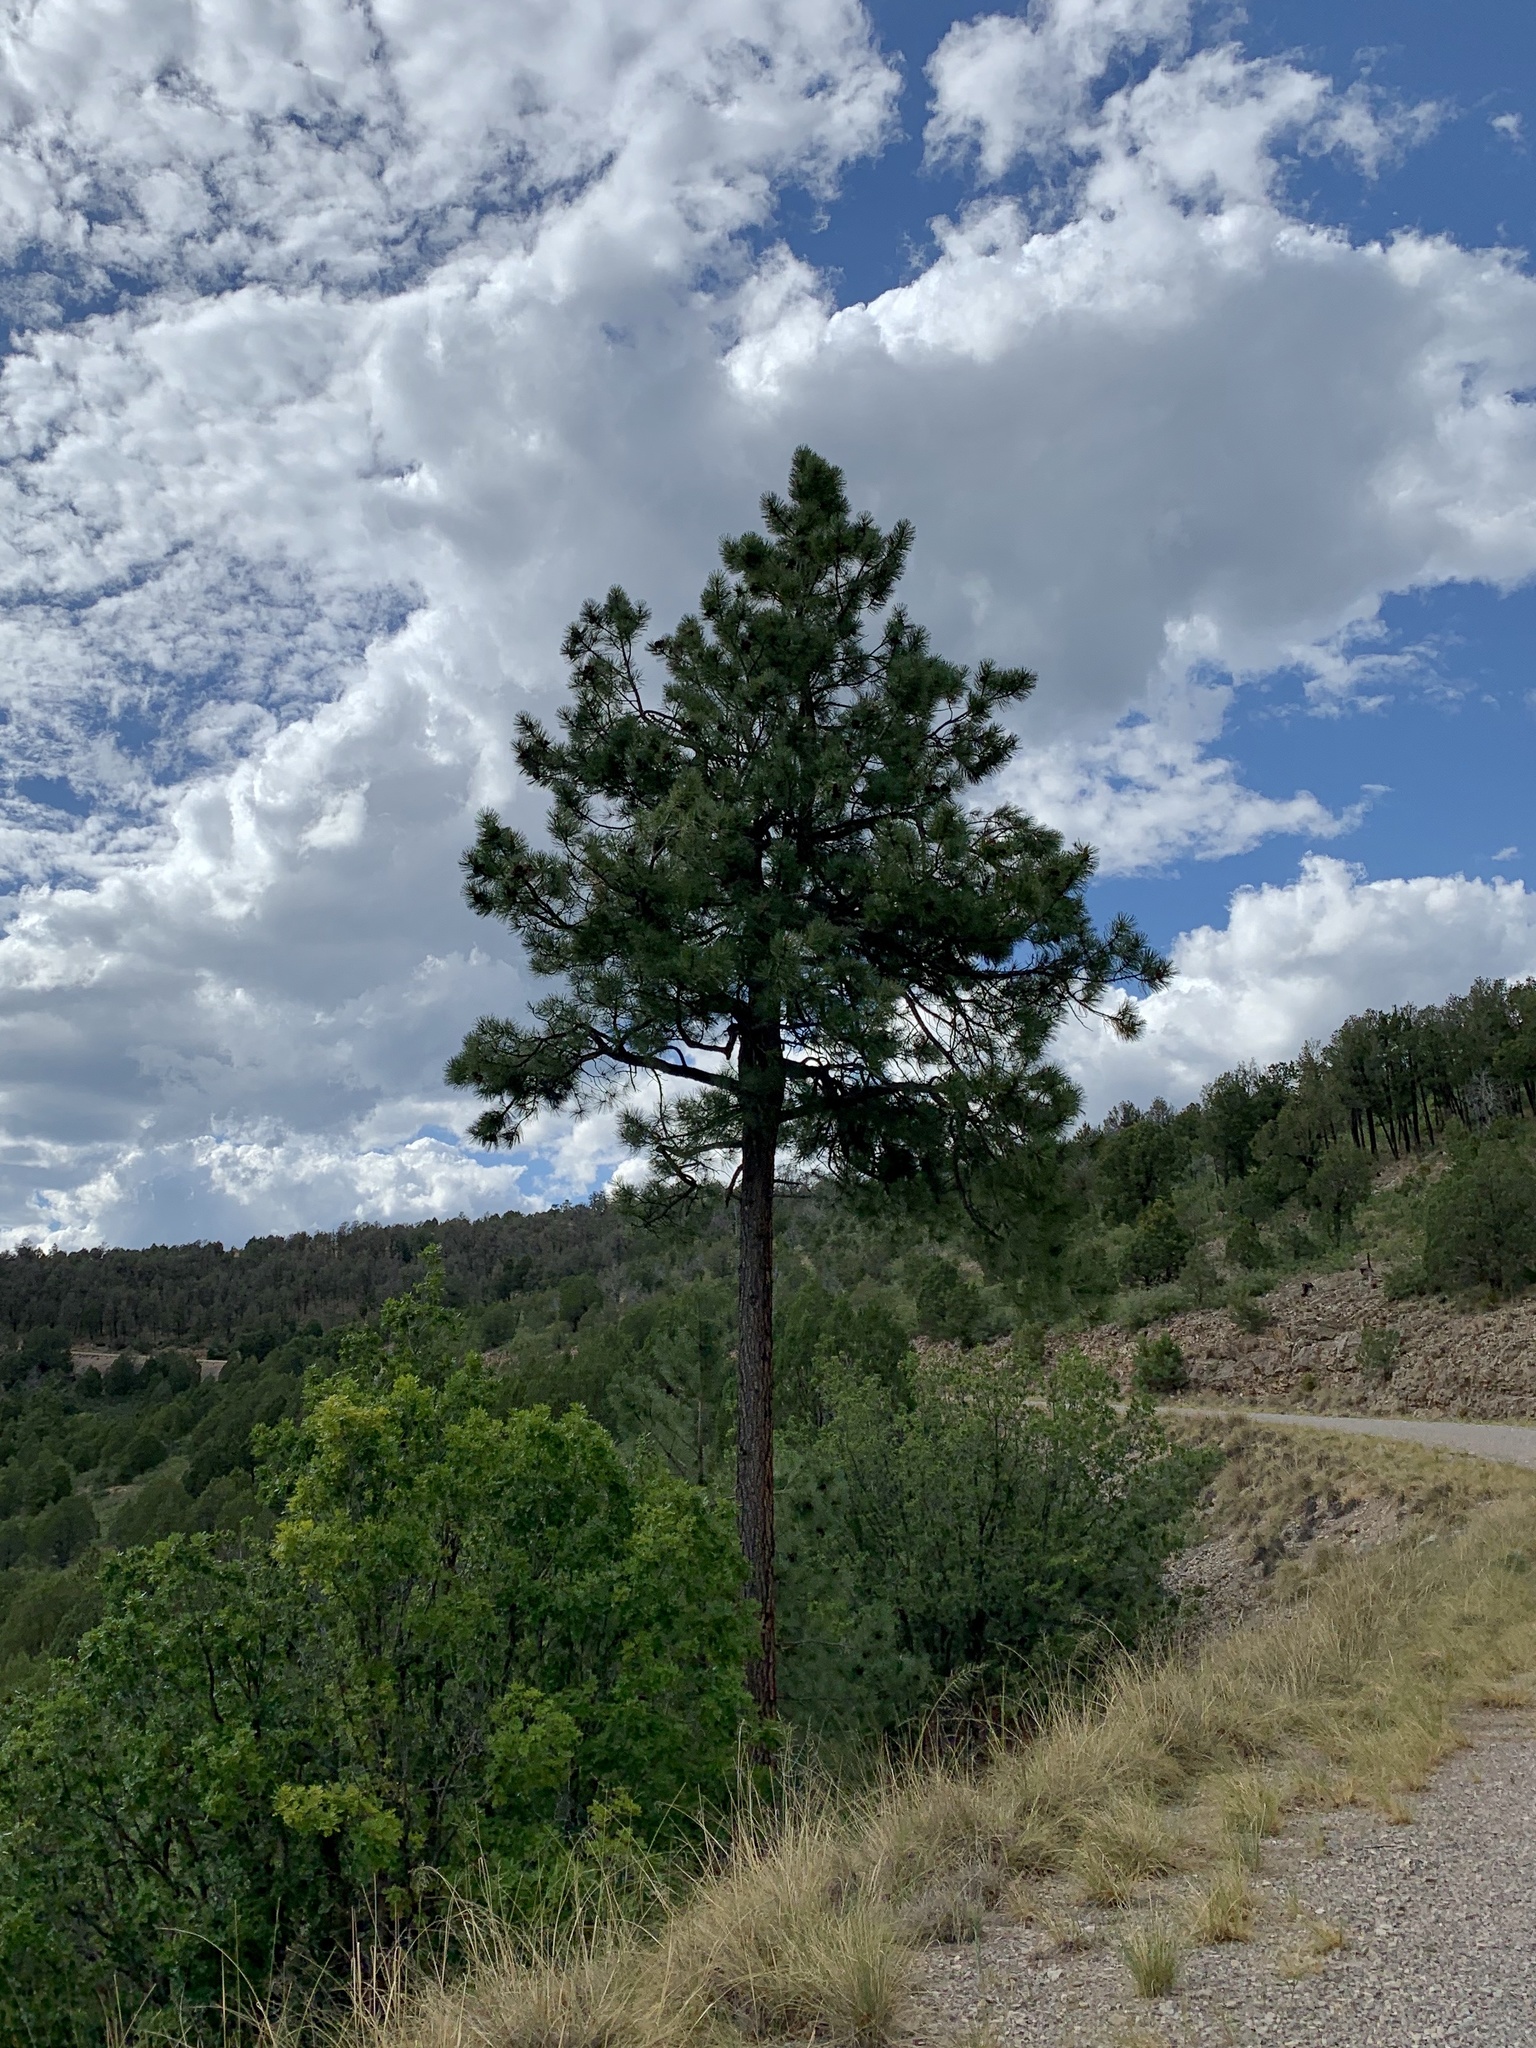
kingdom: Plantae
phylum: Tracheophyta
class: Pinopsida
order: Pinales
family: Pinaceae
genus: Pinus
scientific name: Pinus ponderosa
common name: Western yellow-pine
